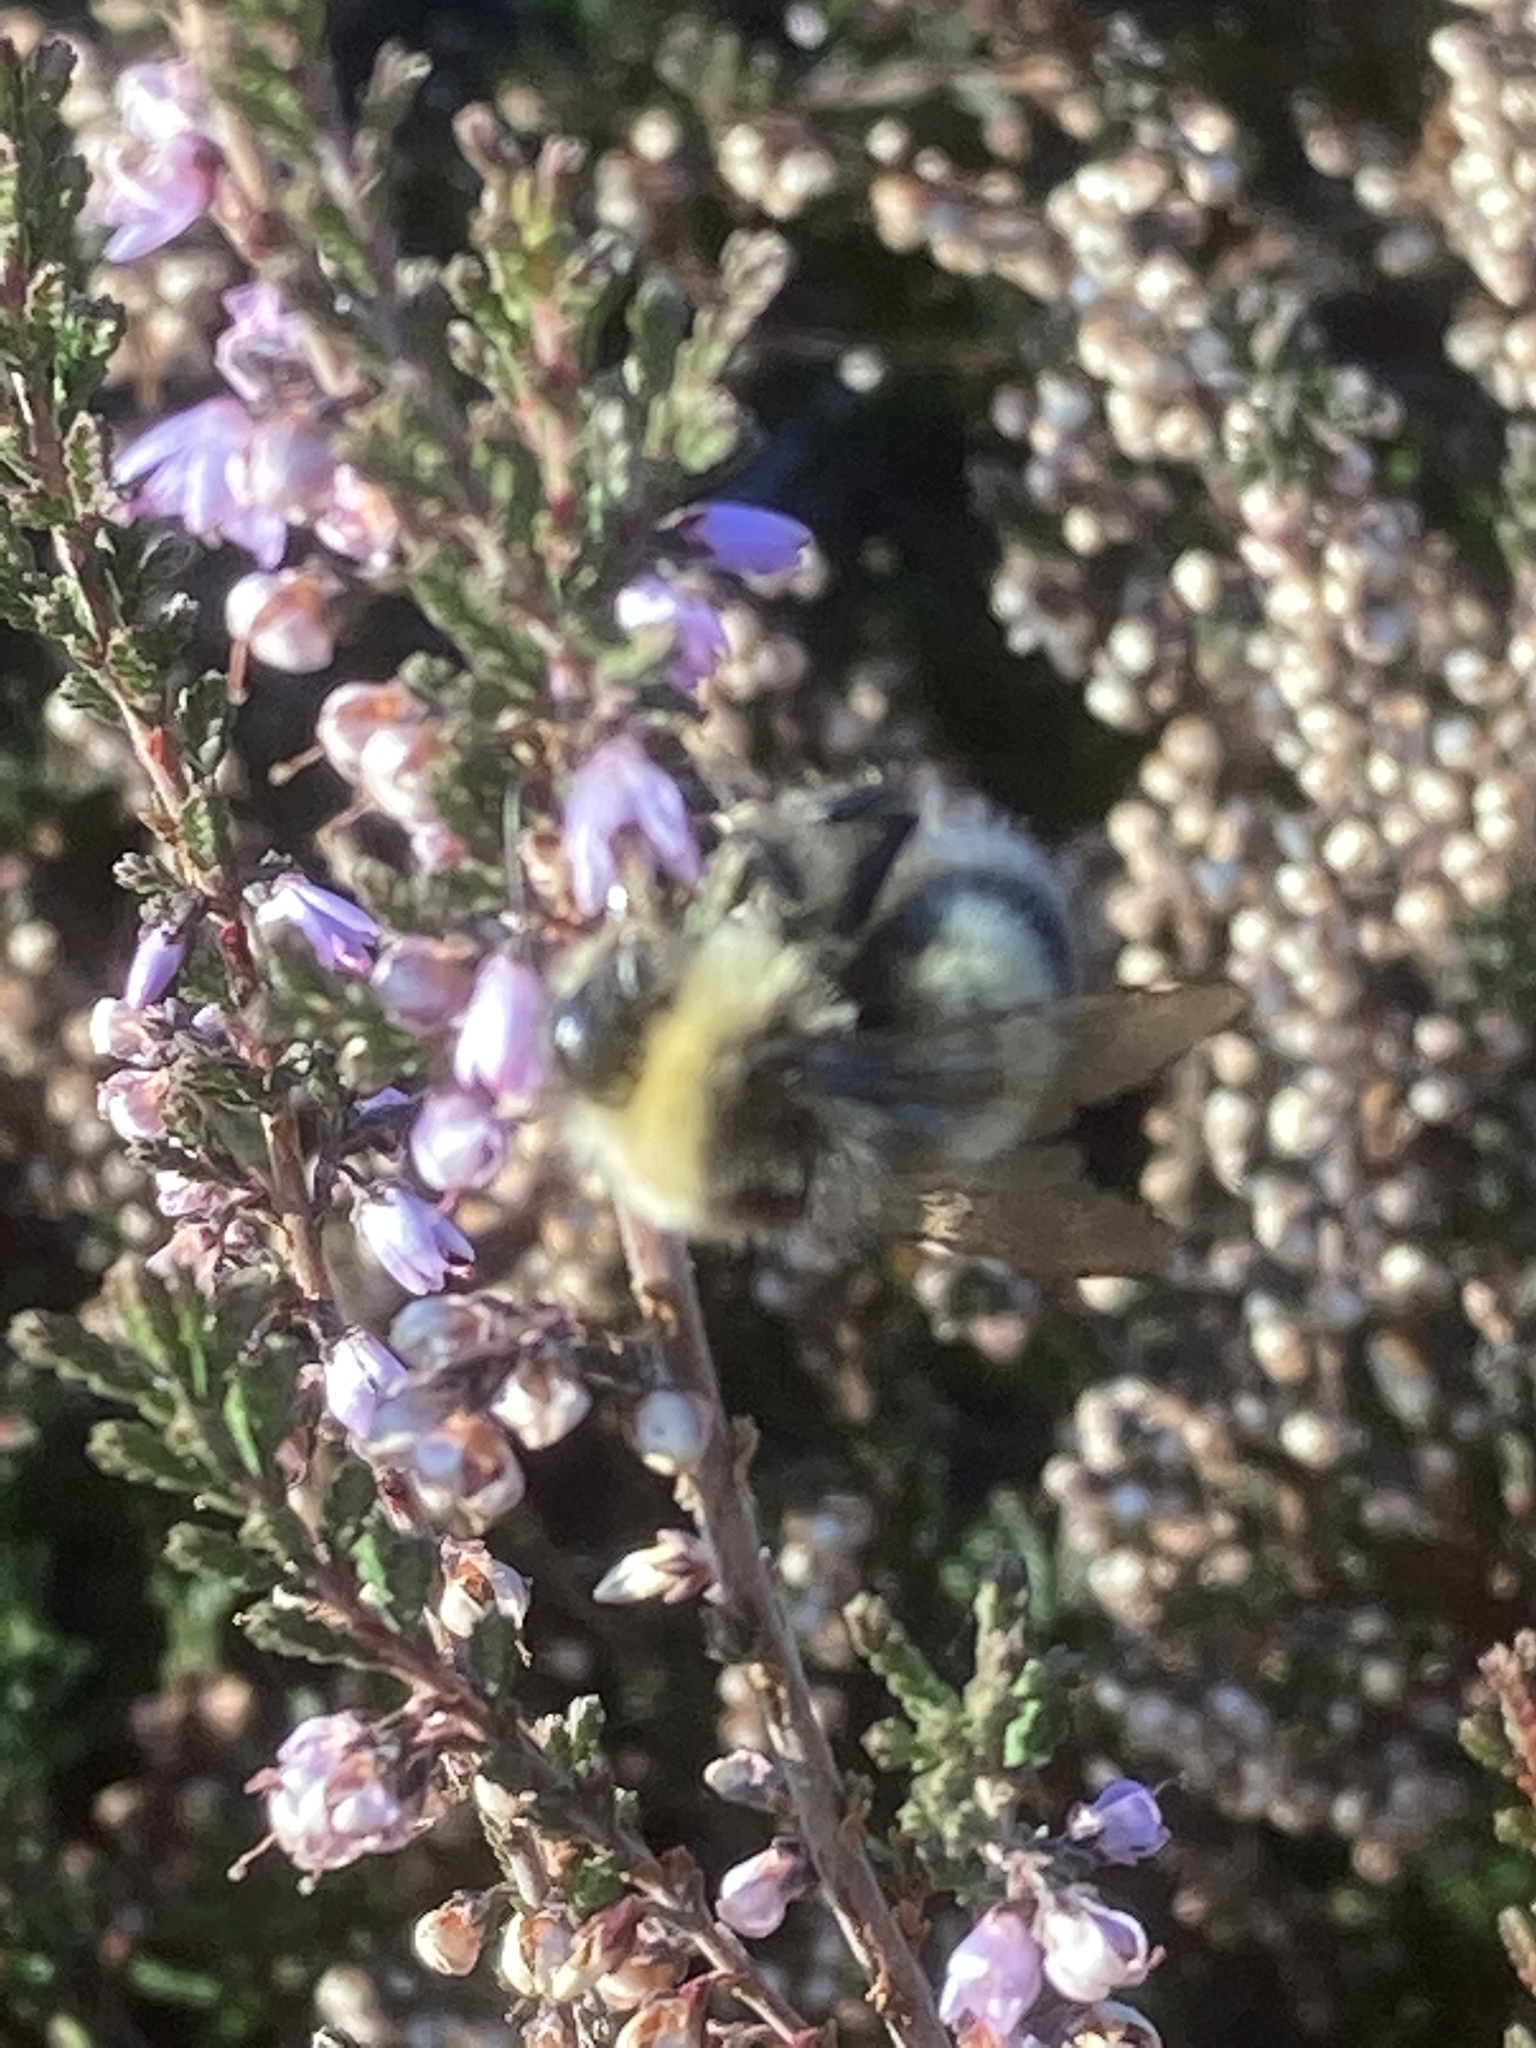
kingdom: Animalia
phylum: Arthropoda
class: Insecta
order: Hymenoptera
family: Apidae
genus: Bombus
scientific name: Bombus lucorum
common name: White-tailed bumblebee
